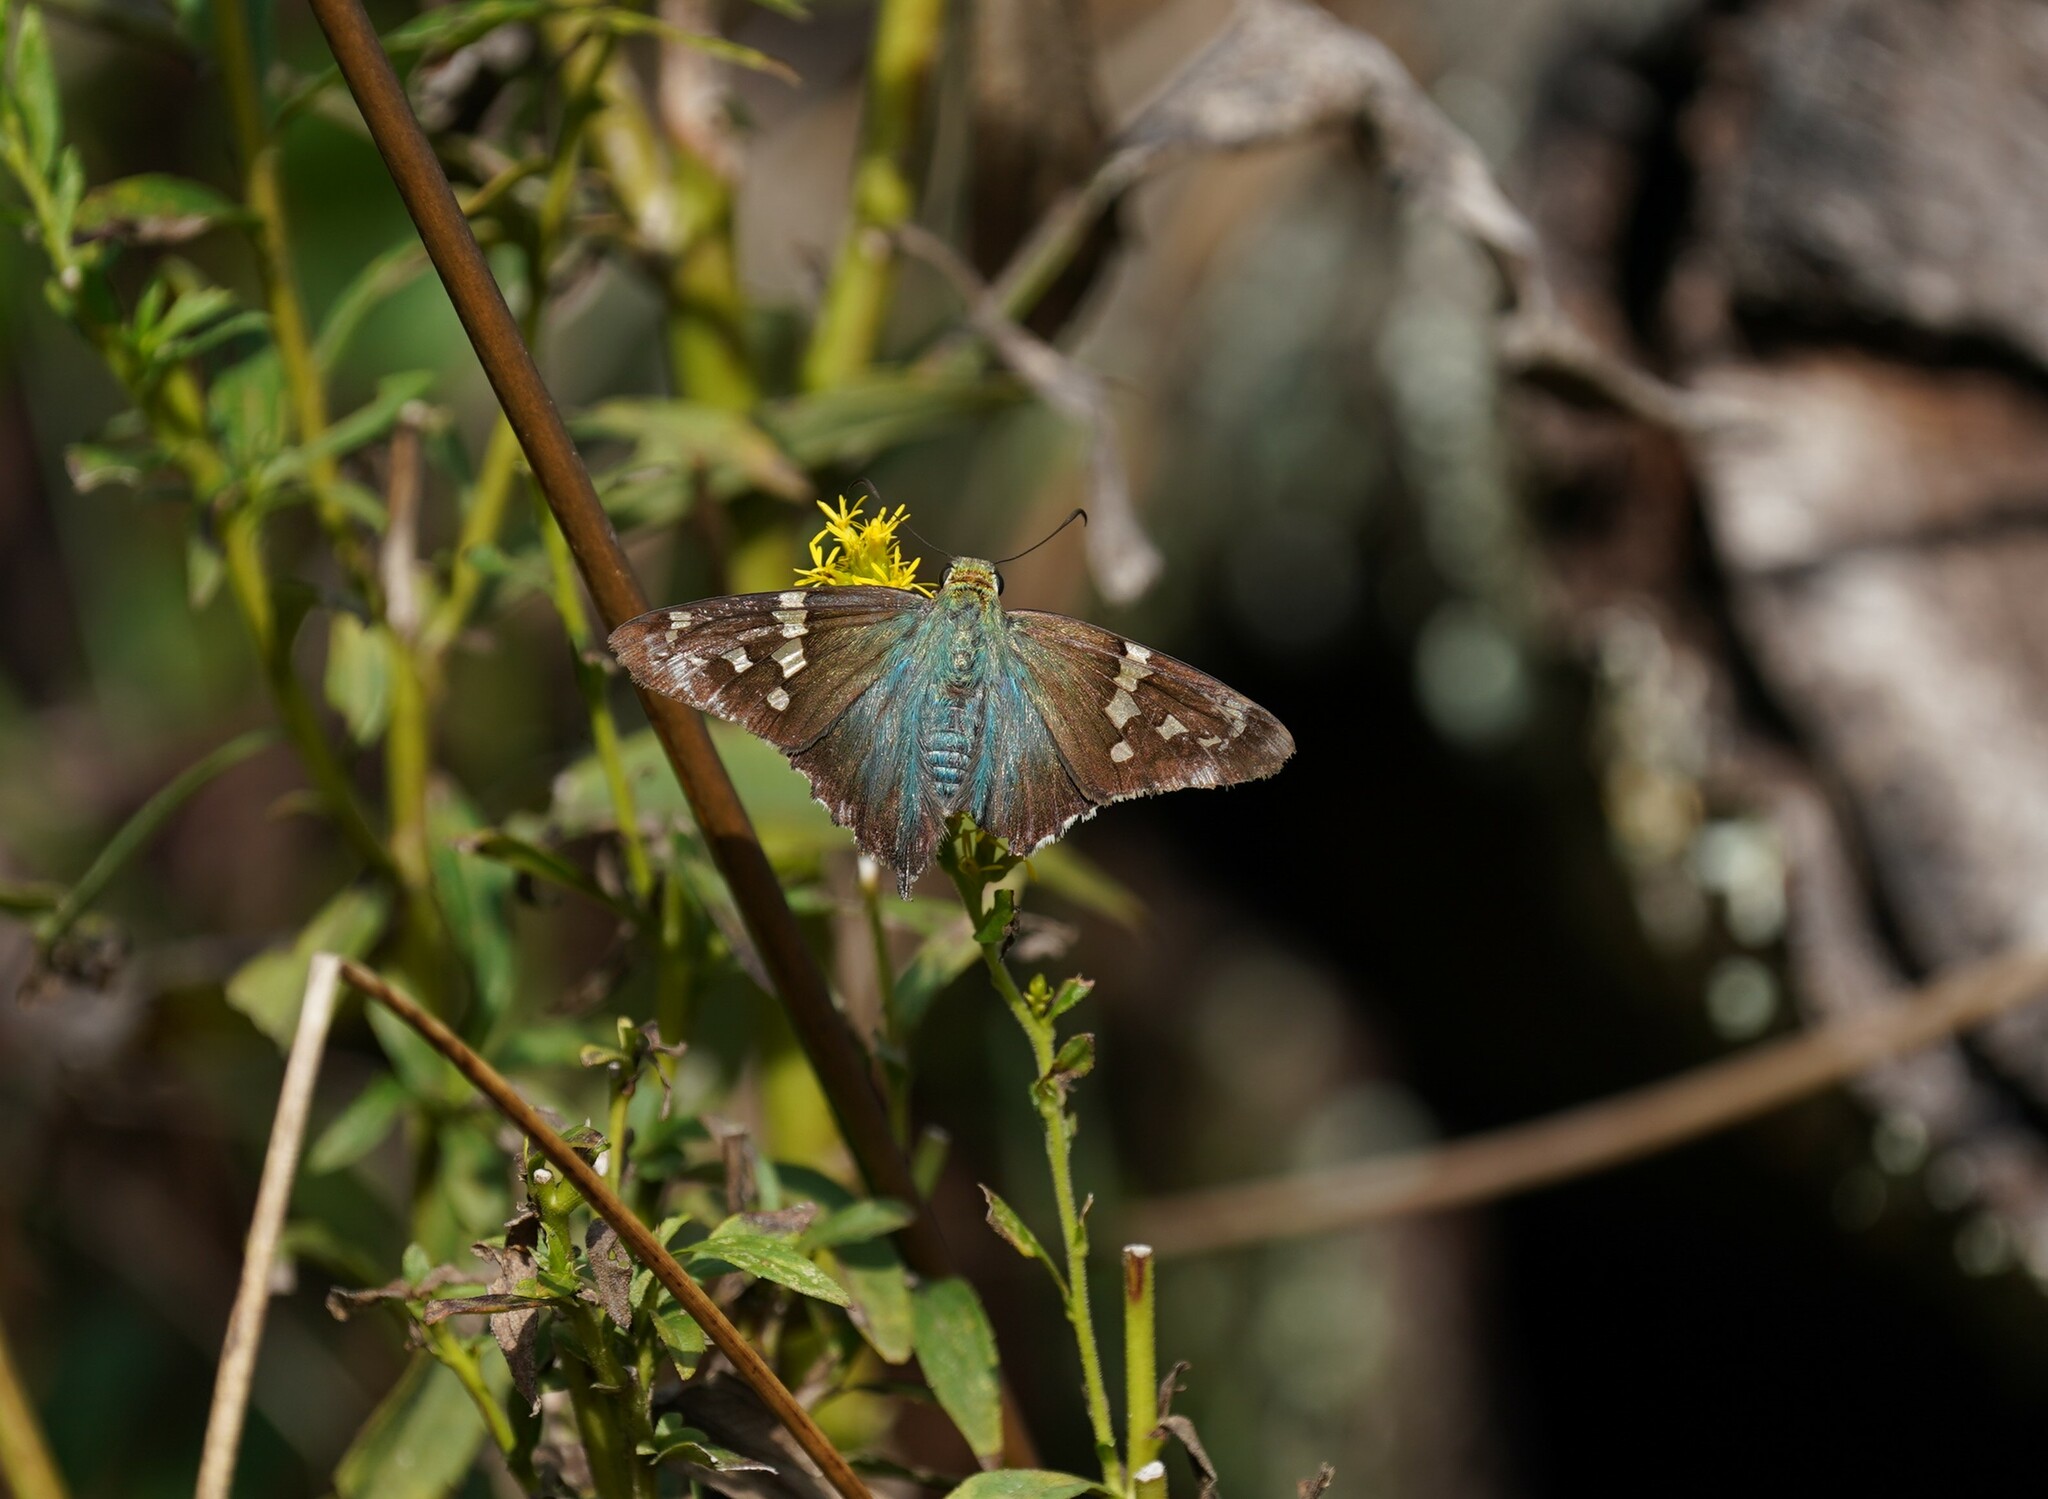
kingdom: Animalia
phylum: Arthropoda
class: Insecta
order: Lepidoptera
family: Hesperiidae
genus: Urbanus
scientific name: Urbanus proteus
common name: Long-tailed skipper
